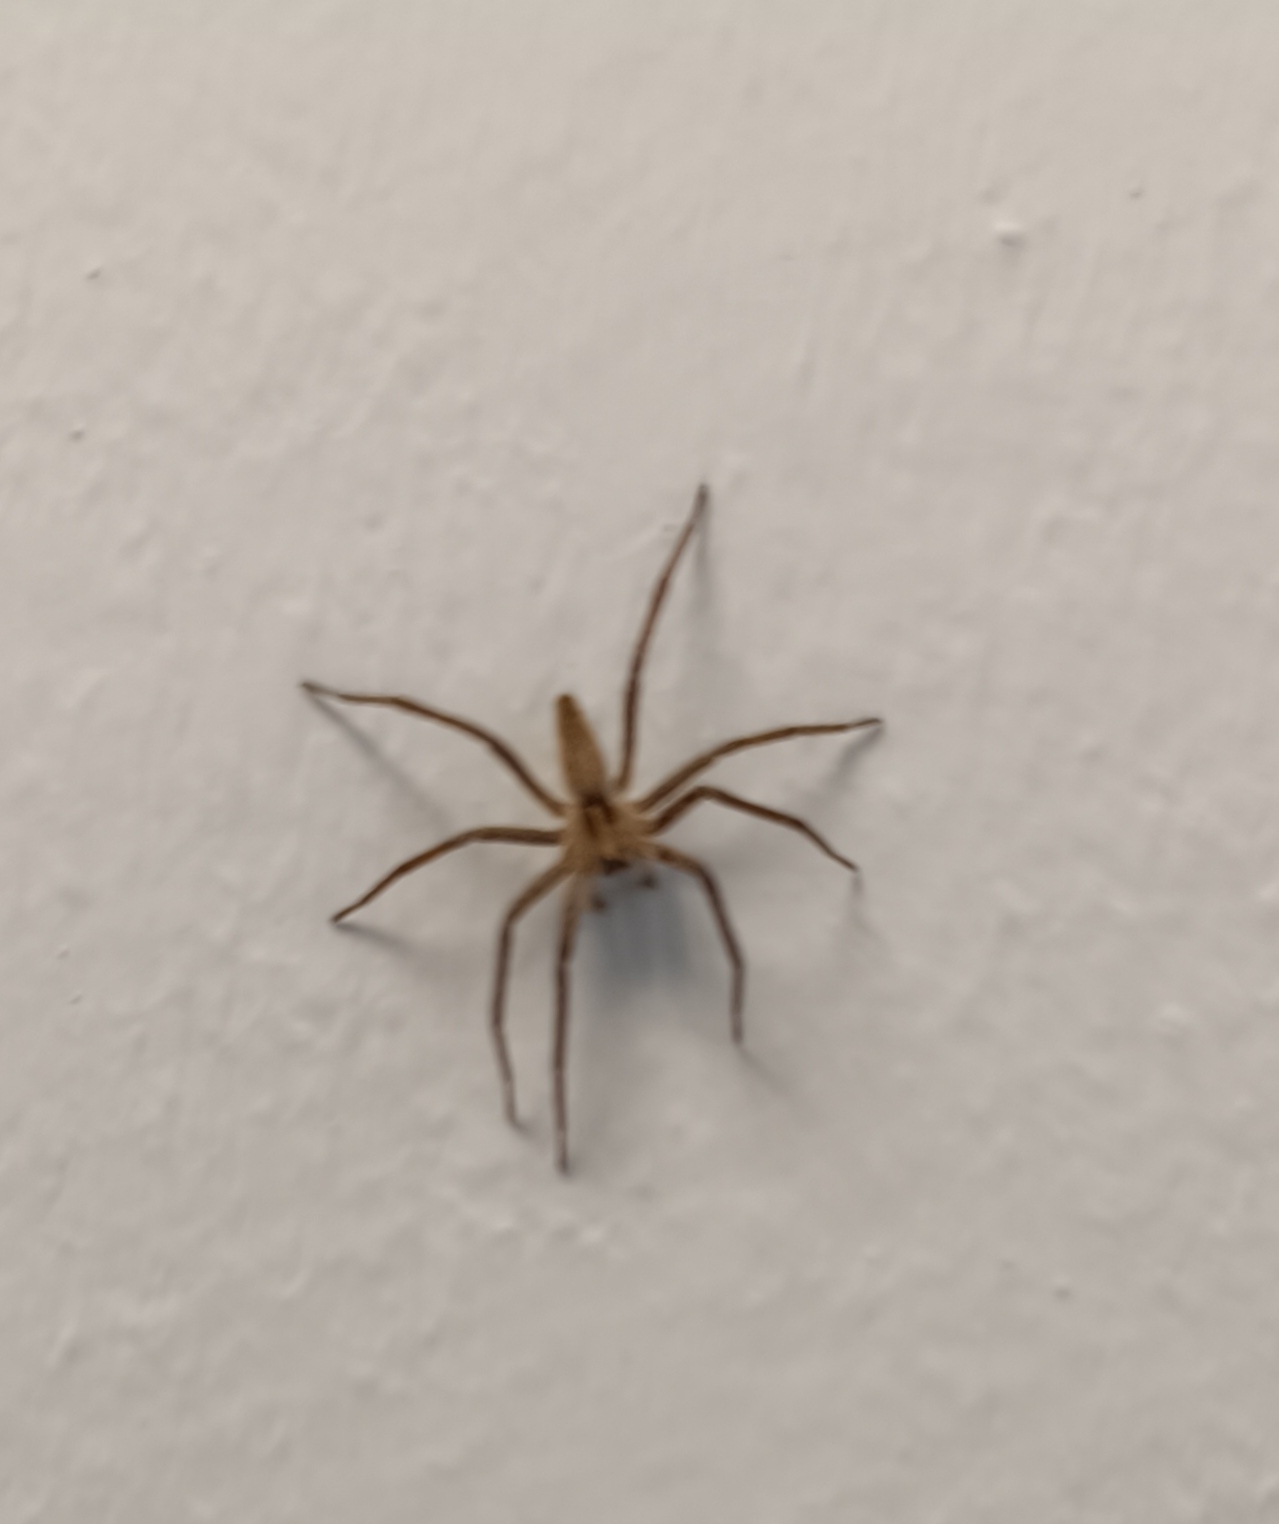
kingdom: Animalia
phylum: Arthropoda
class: Arachnida
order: Araneae
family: Pisauridae
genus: Pisaura
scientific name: Pisaura mirabilis
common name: Tent spider
